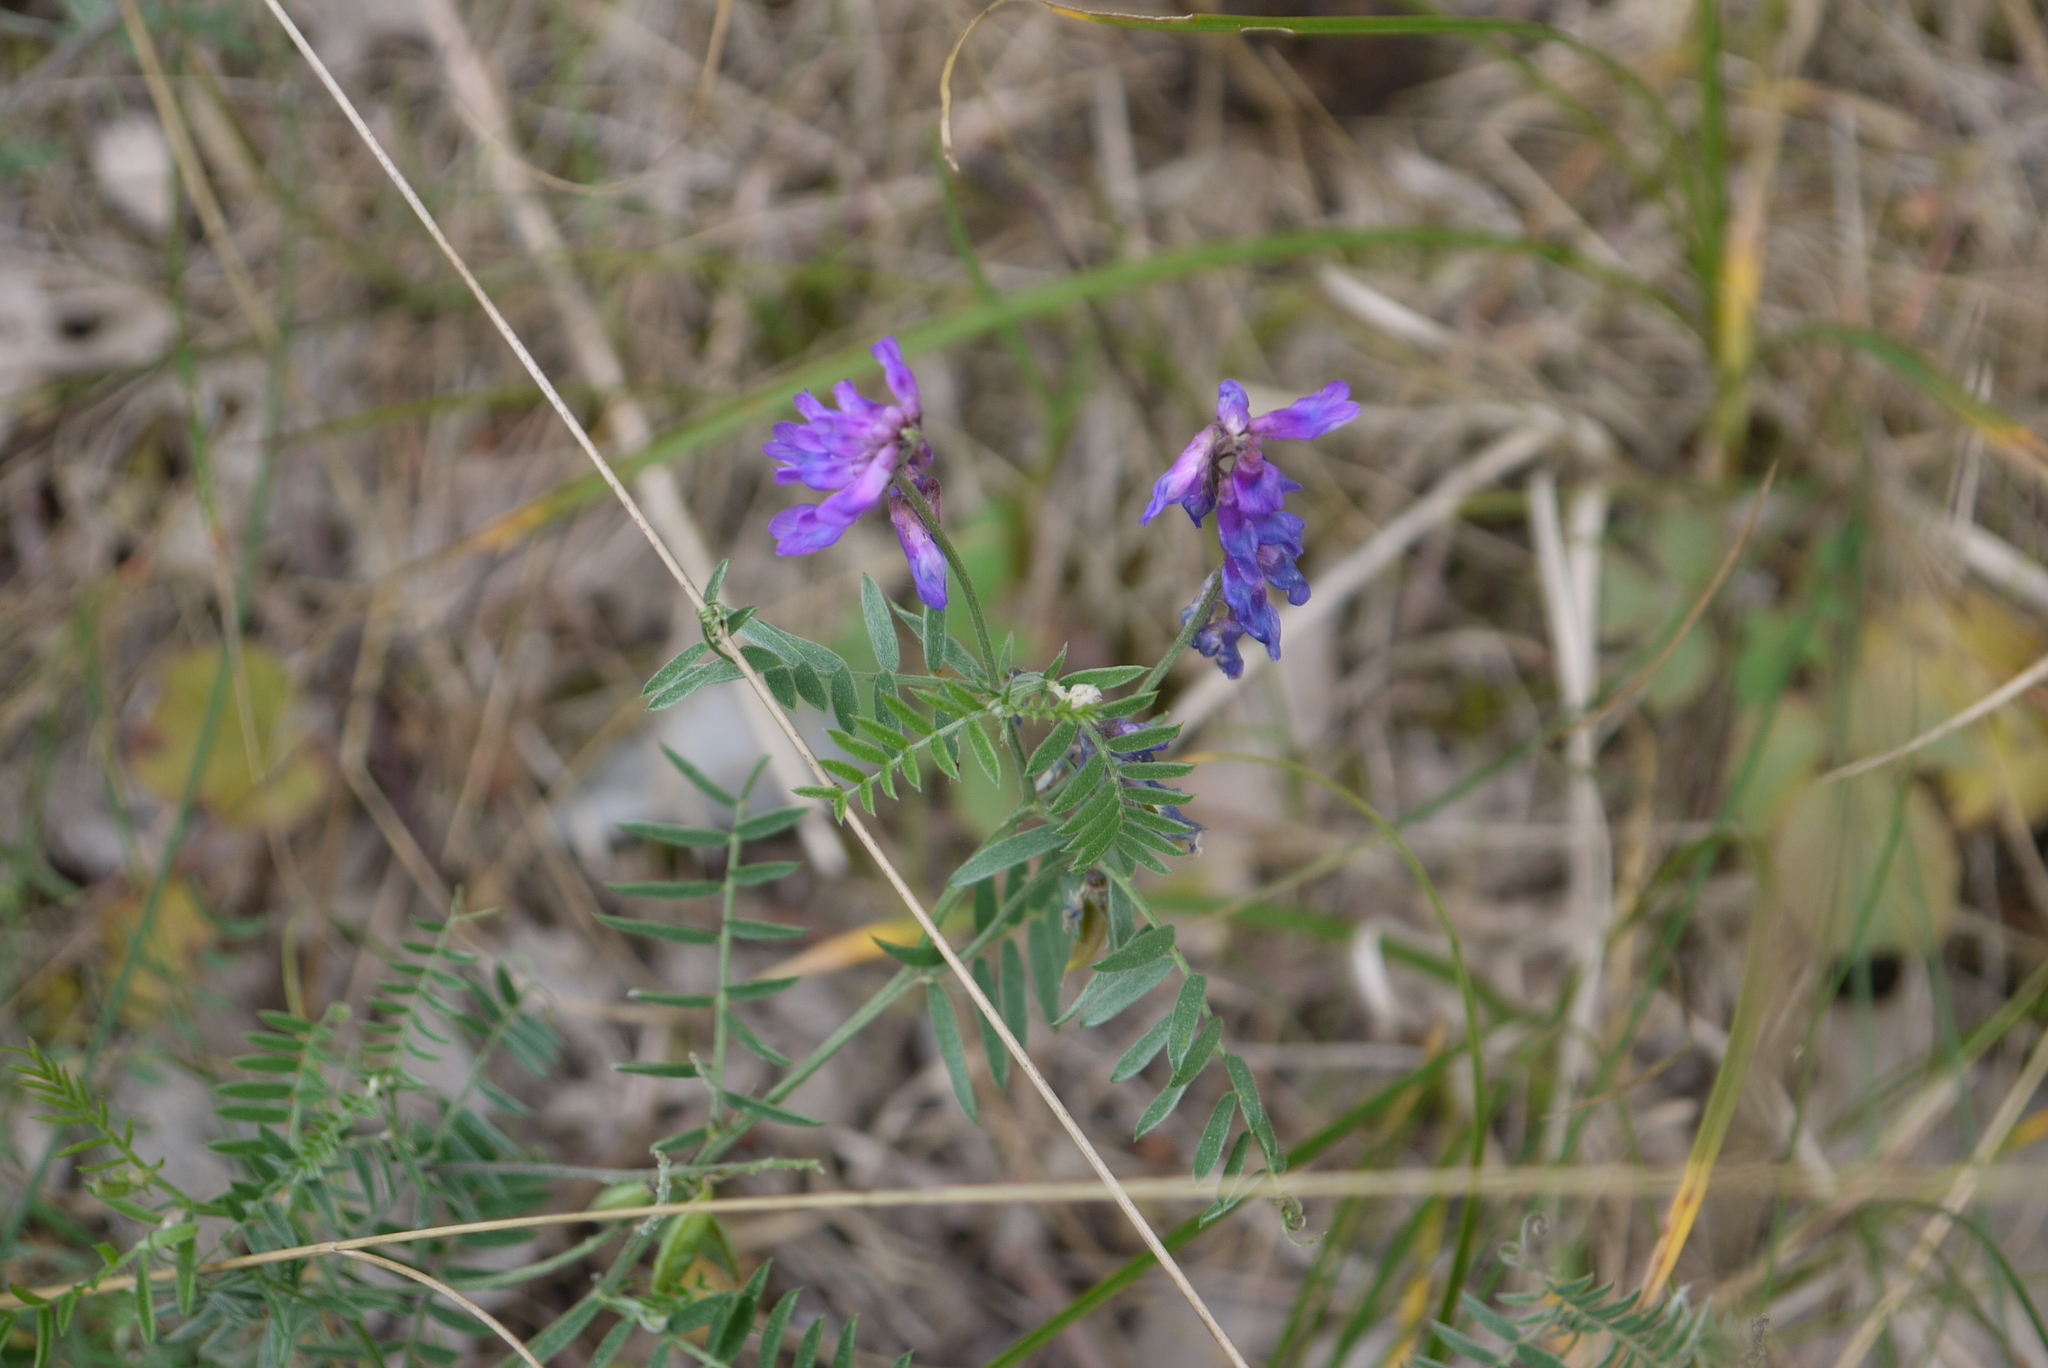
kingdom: Plantae
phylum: Tracheophyta
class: Magnoliopsida
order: Fabales
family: Fabaceae
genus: Vicia
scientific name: Vicia cracca
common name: Bird vetch
